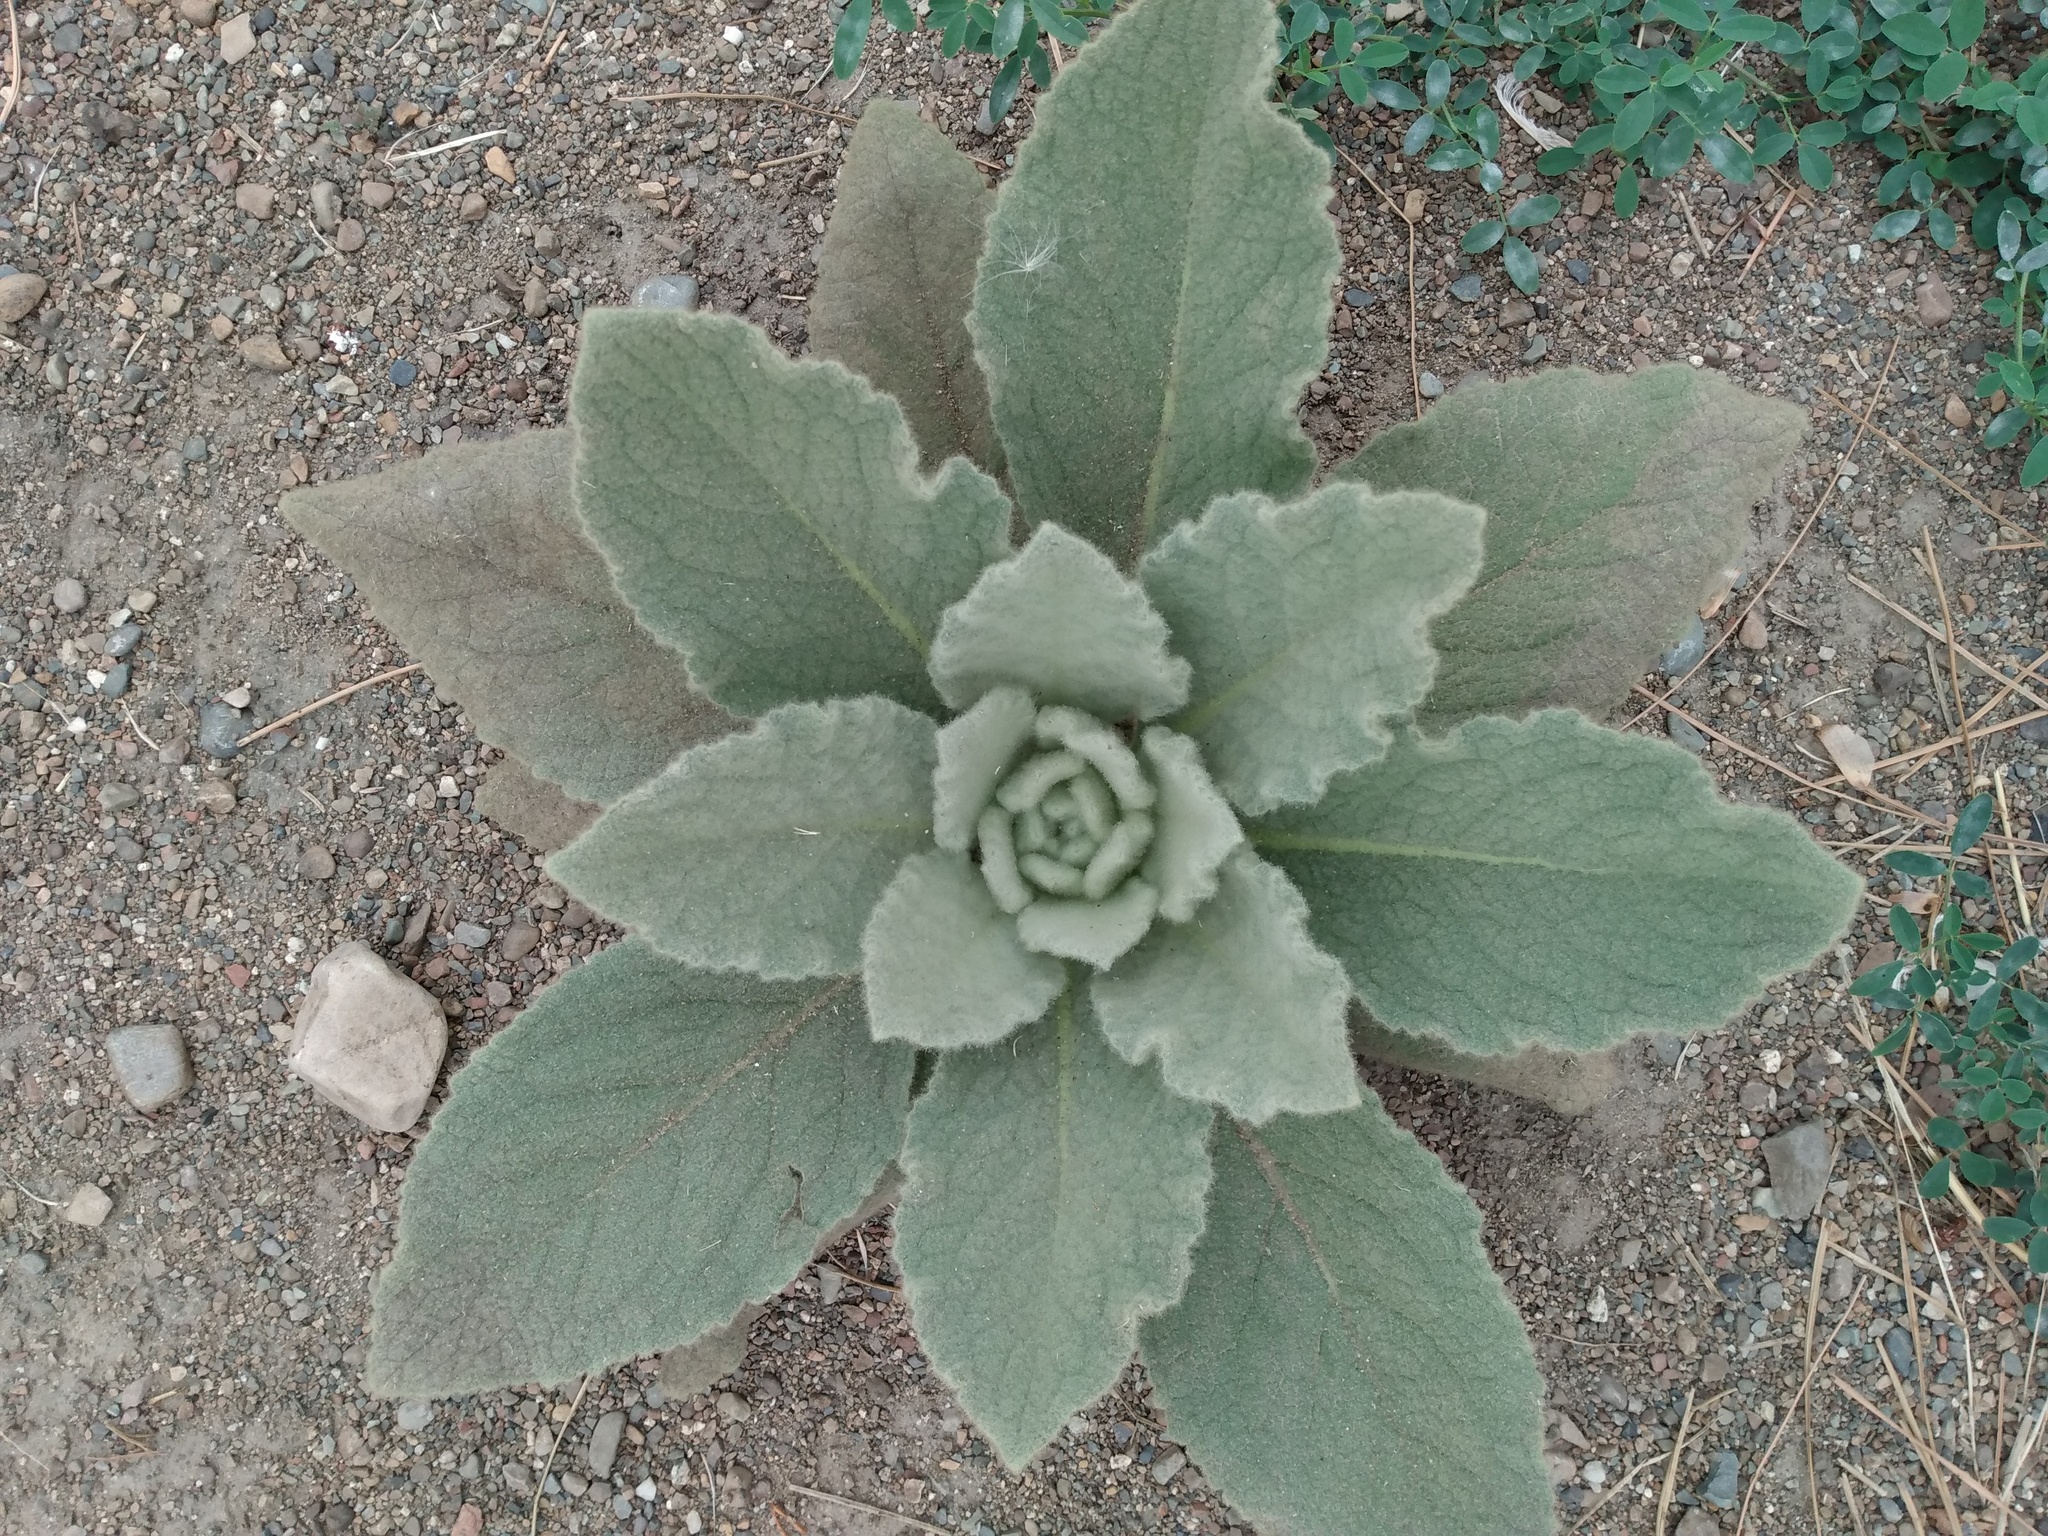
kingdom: Plantae
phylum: Tracheophyta
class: Magnoliopsida
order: Lamiales
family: Scrophulariaceae
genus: Verbascum
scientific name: Verbascum thapsus
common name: Common mullein
